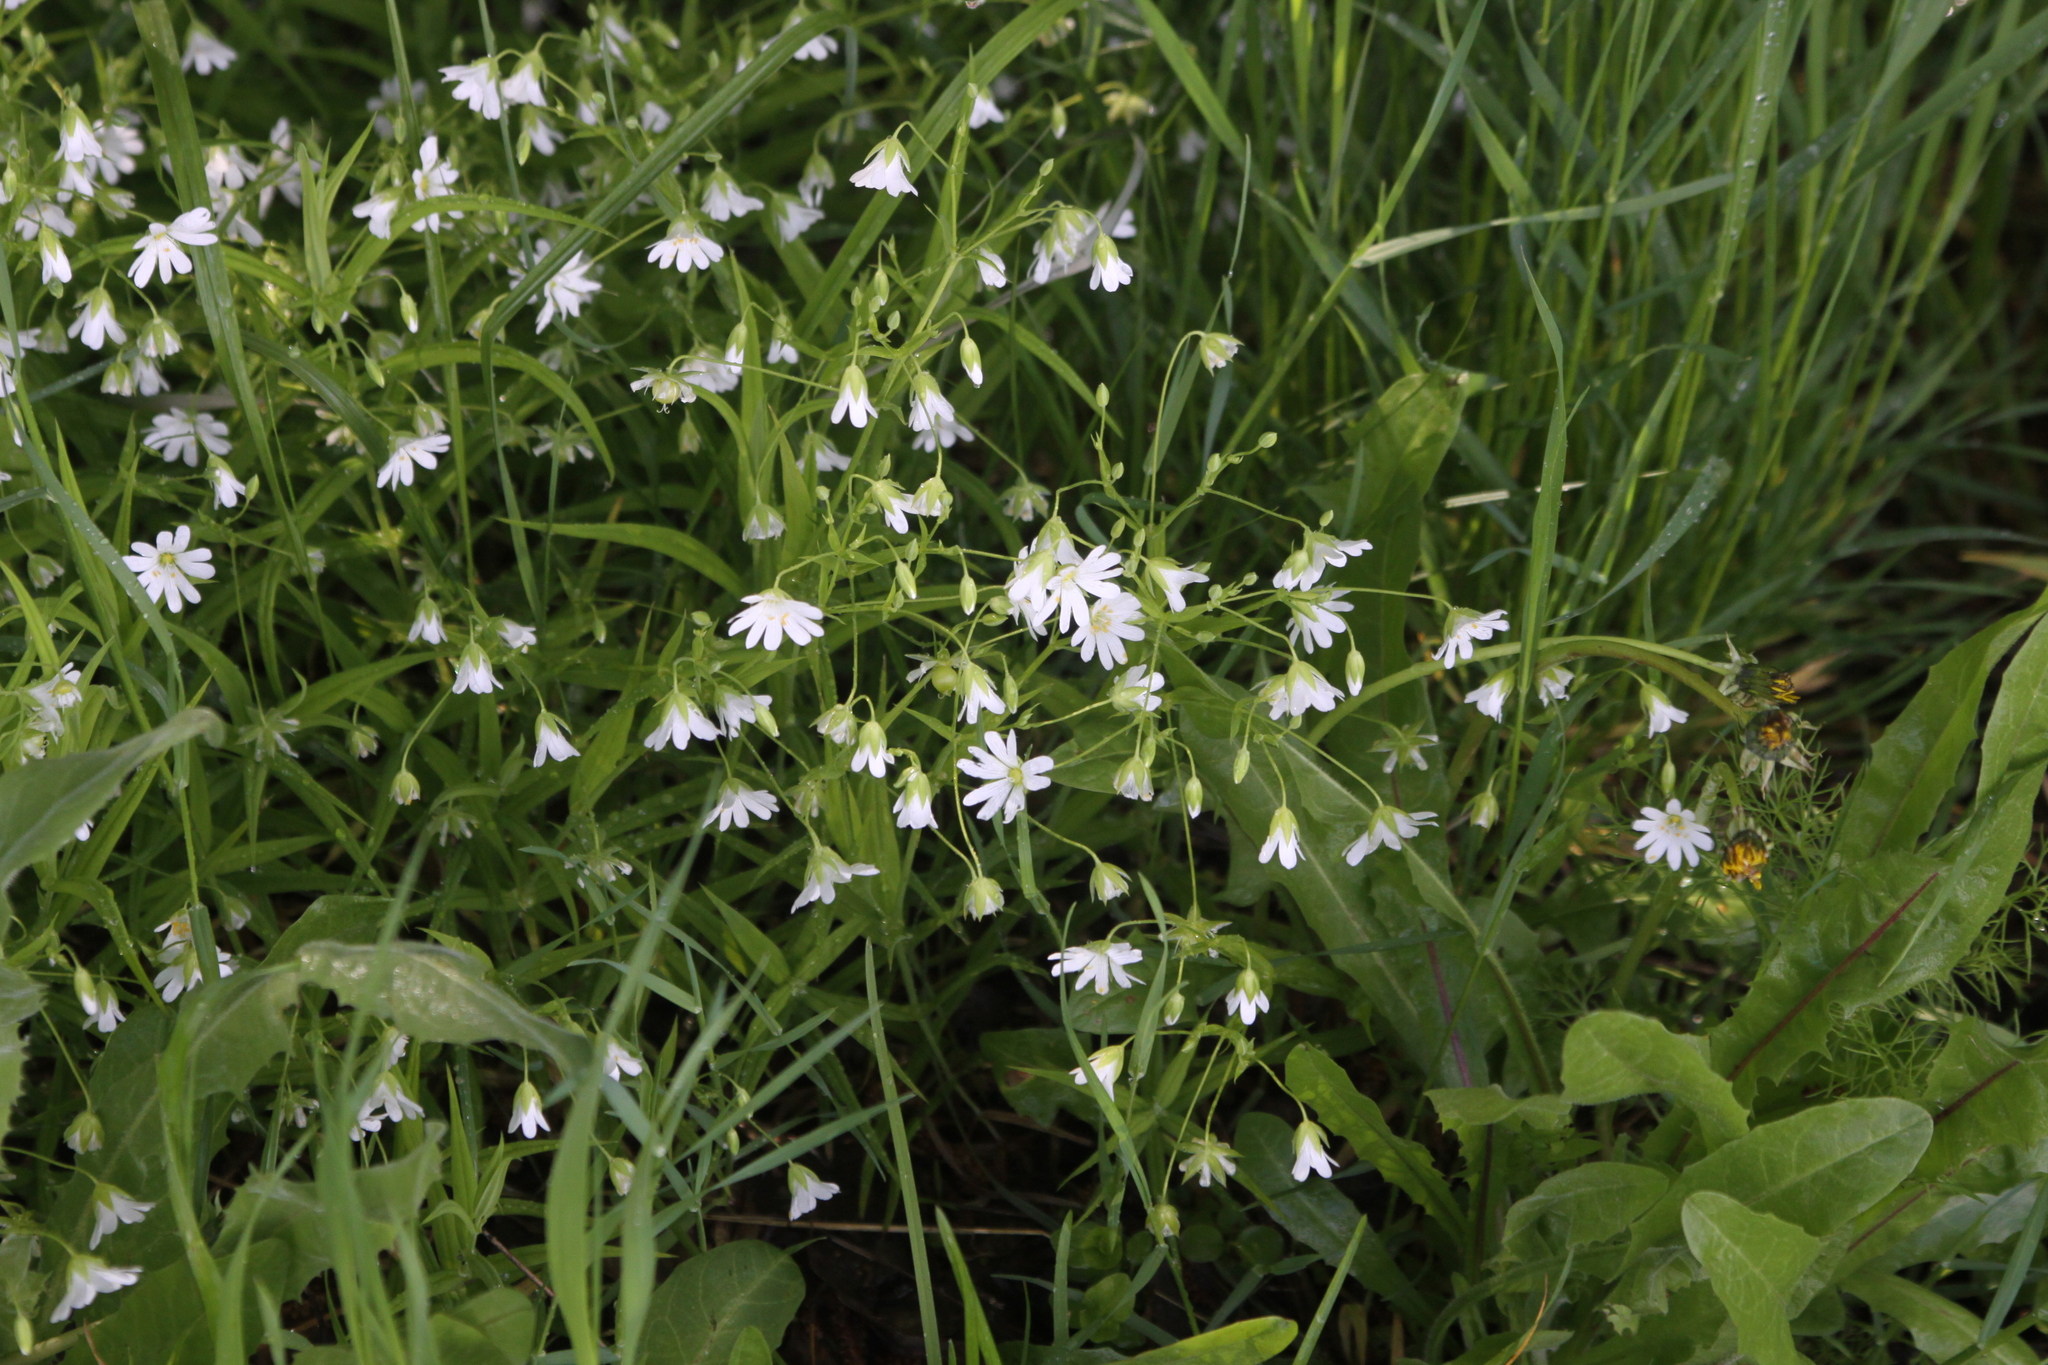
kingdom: Plantae
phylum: Tracheophyta
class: Magnoliopsida
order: Caryophyllales
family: Caryophyllaceae
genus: Rabelera
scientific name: Rabelera holostea
